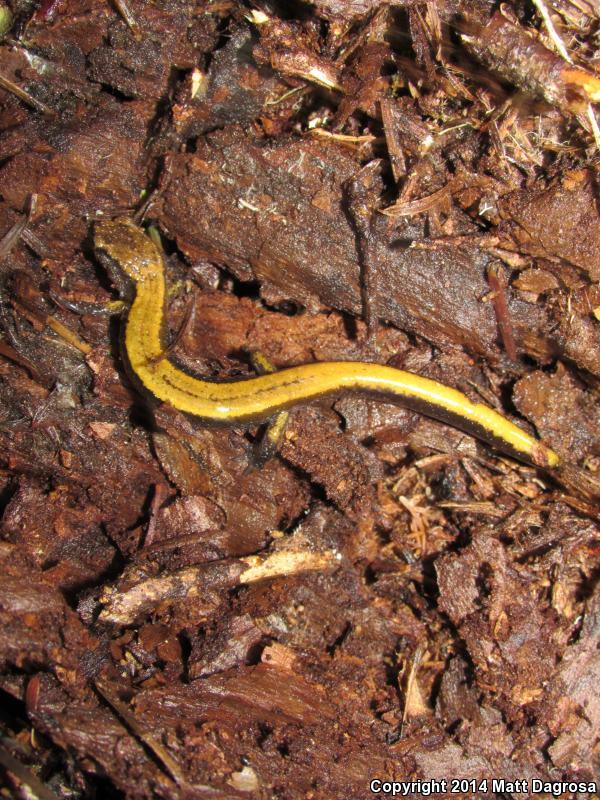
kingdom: Animalia
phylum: Chordata
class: Amphibia
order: Caudata
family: Plethodontidae
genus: Plethodon
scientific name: Plethodon vehiculum
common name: Western red-backed salamander
